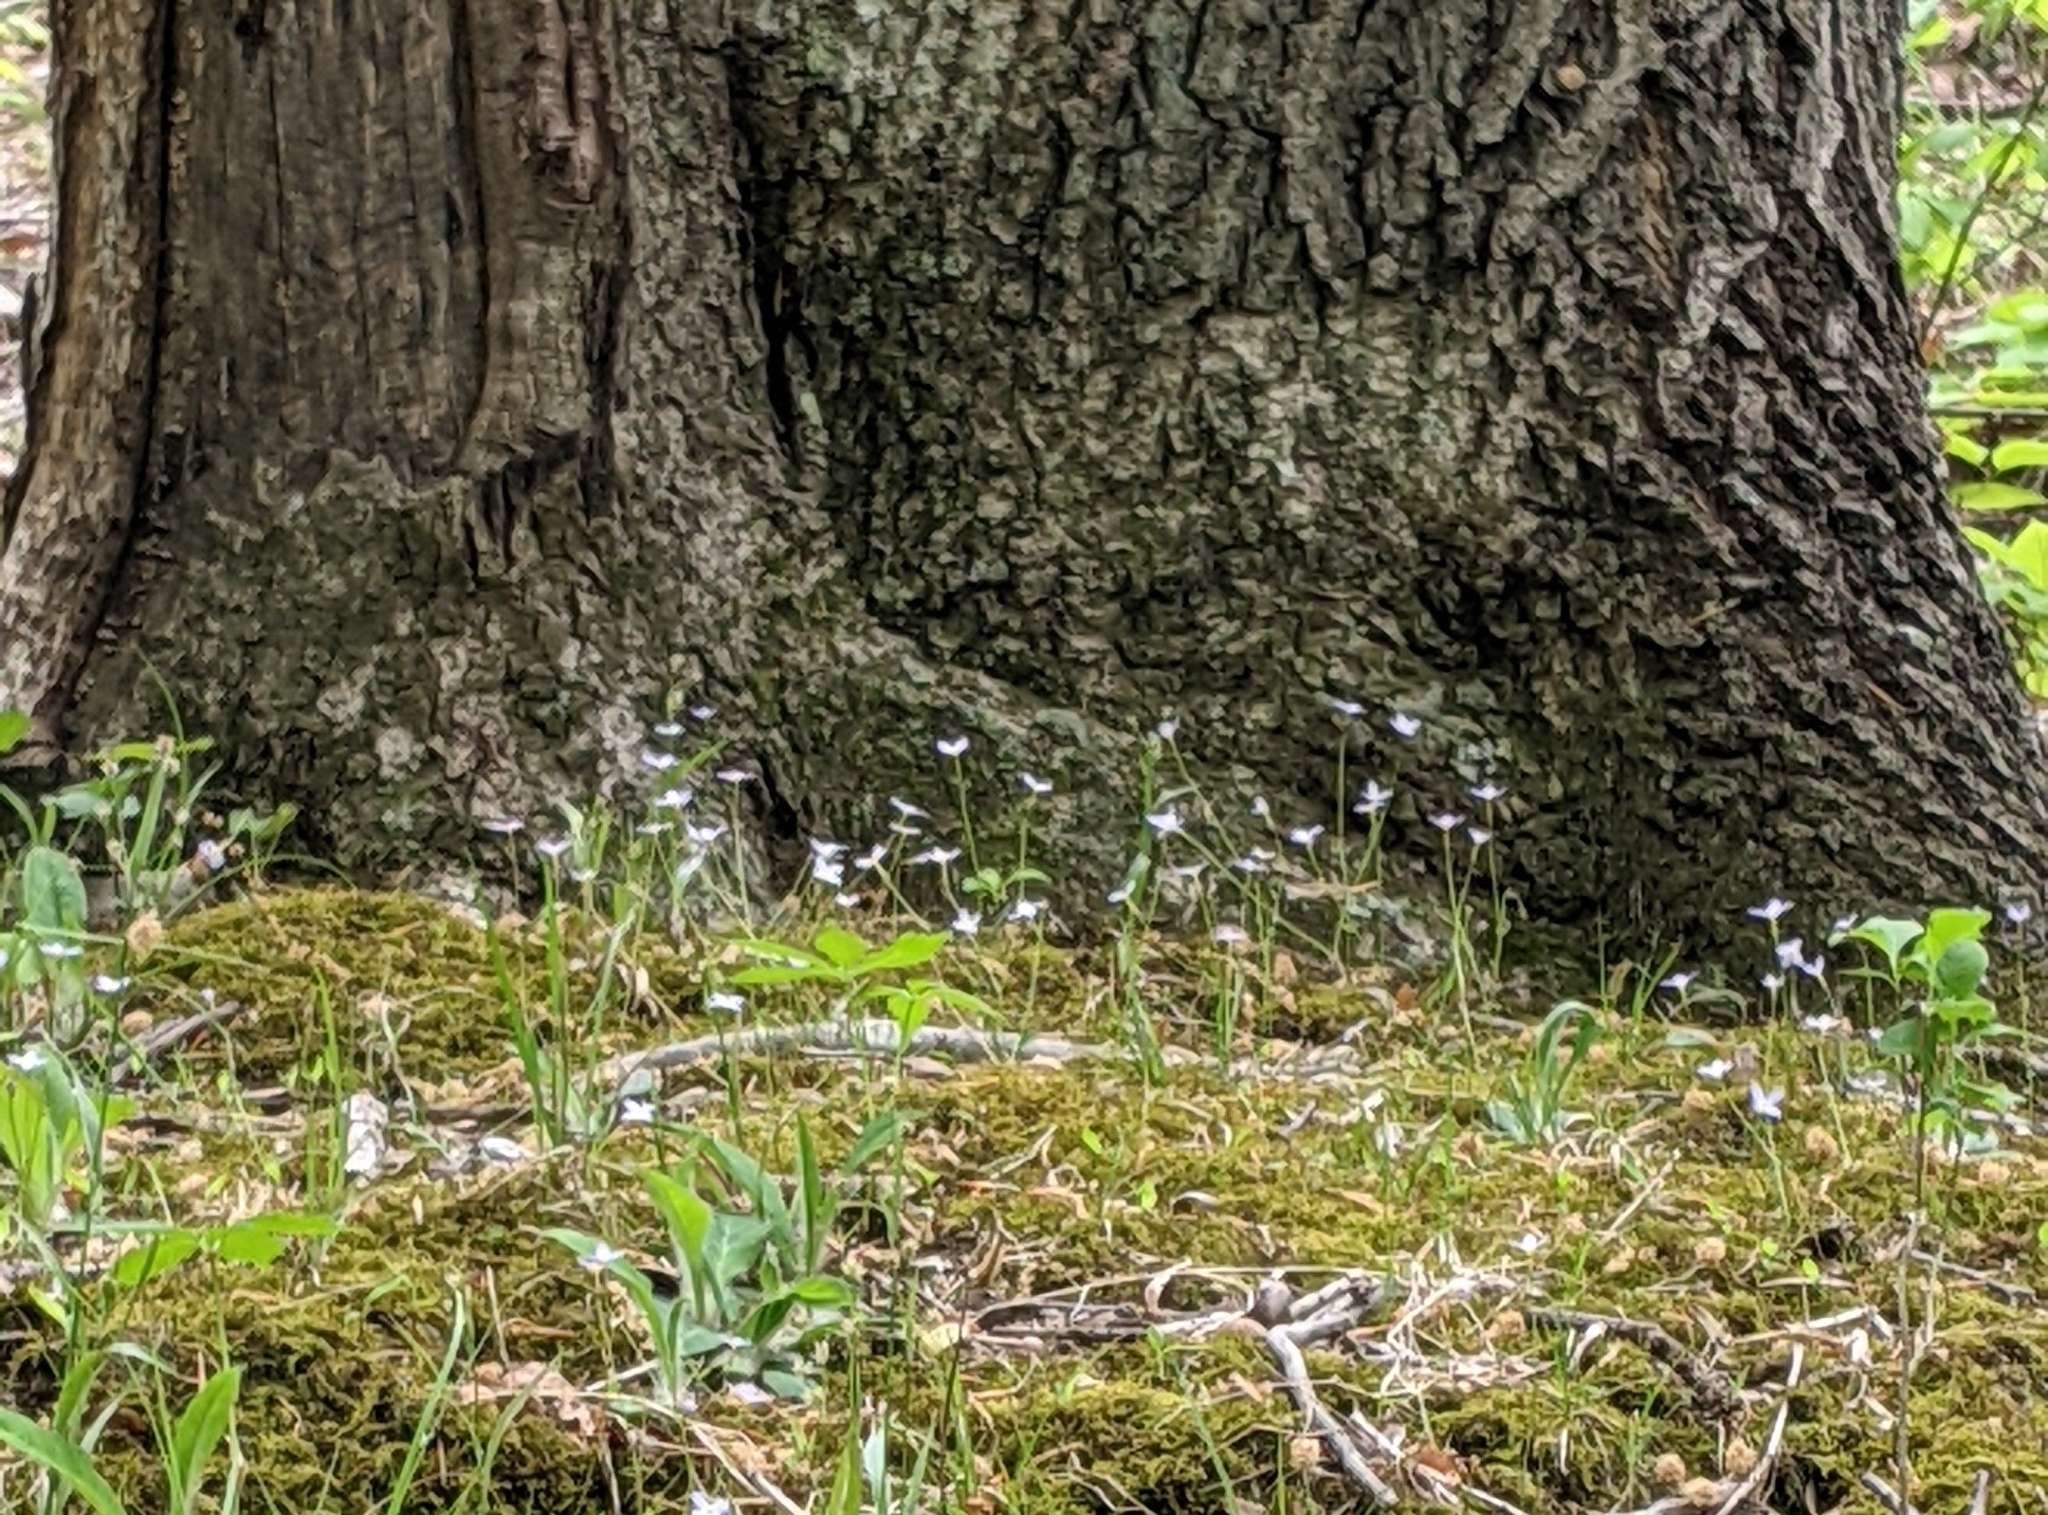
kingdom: Plantae
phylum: Tracheophyta
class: Magnoliopsida
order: Gentianales
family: Rubiaceae
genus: Houstonia
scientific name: Houstonia caerulea
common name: Bluets
